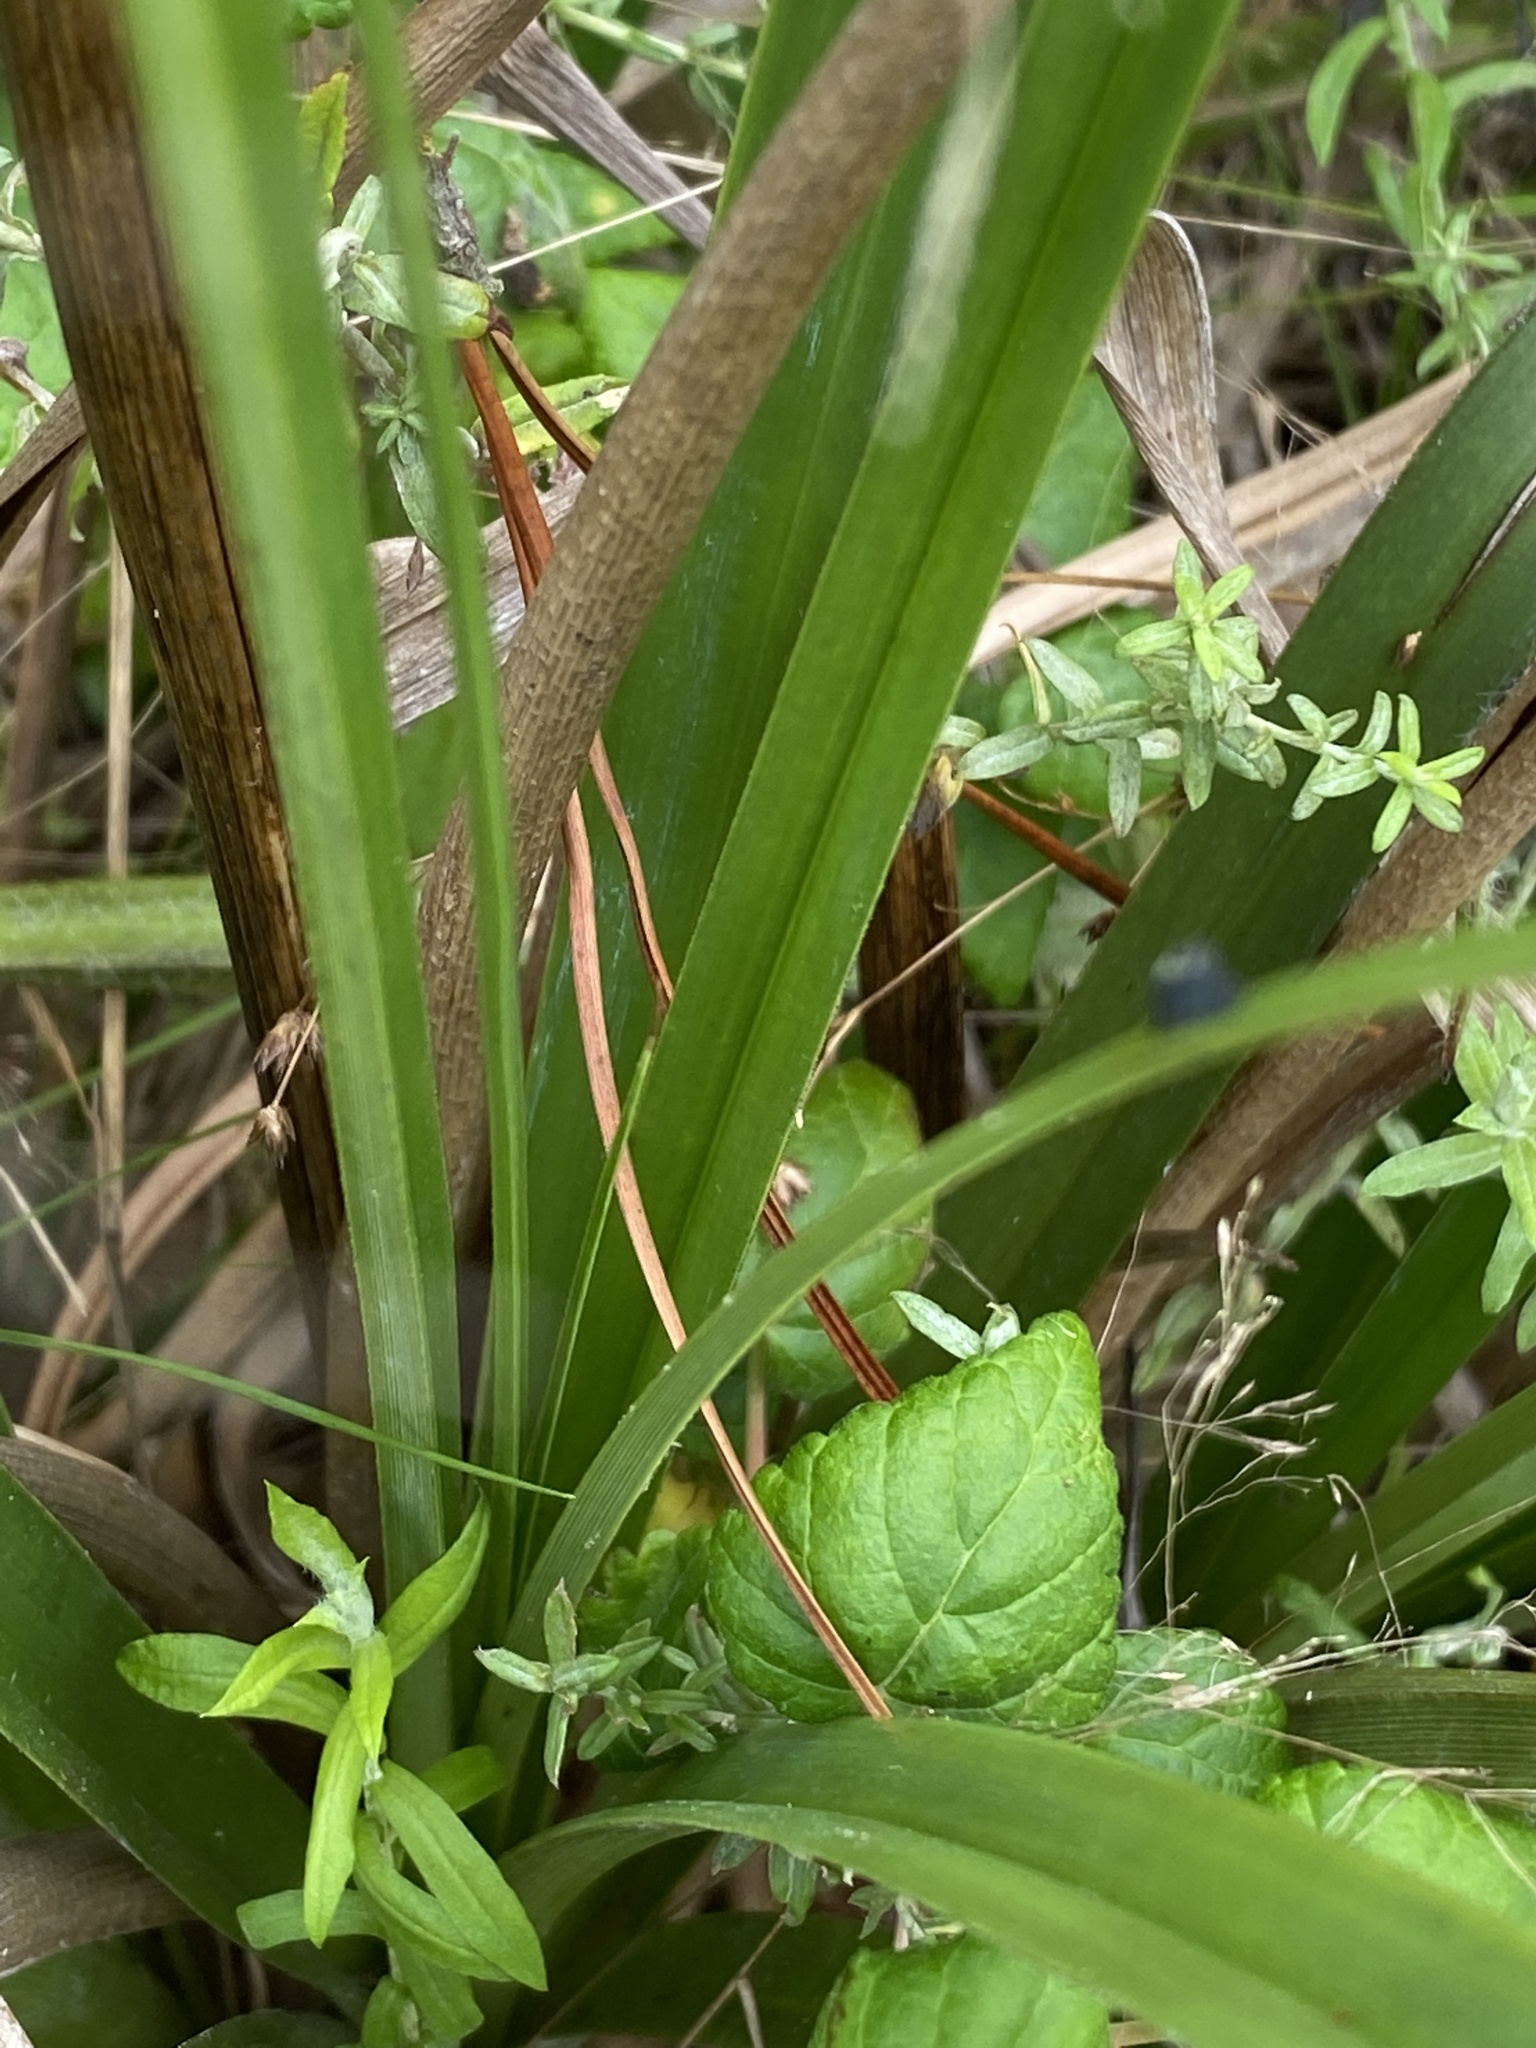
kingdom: Plantae
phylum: Tracheophyta
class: Liliopsida
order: Poales
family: Cyperaceae
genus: Cyperus
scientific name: Cyperus thunbergii
